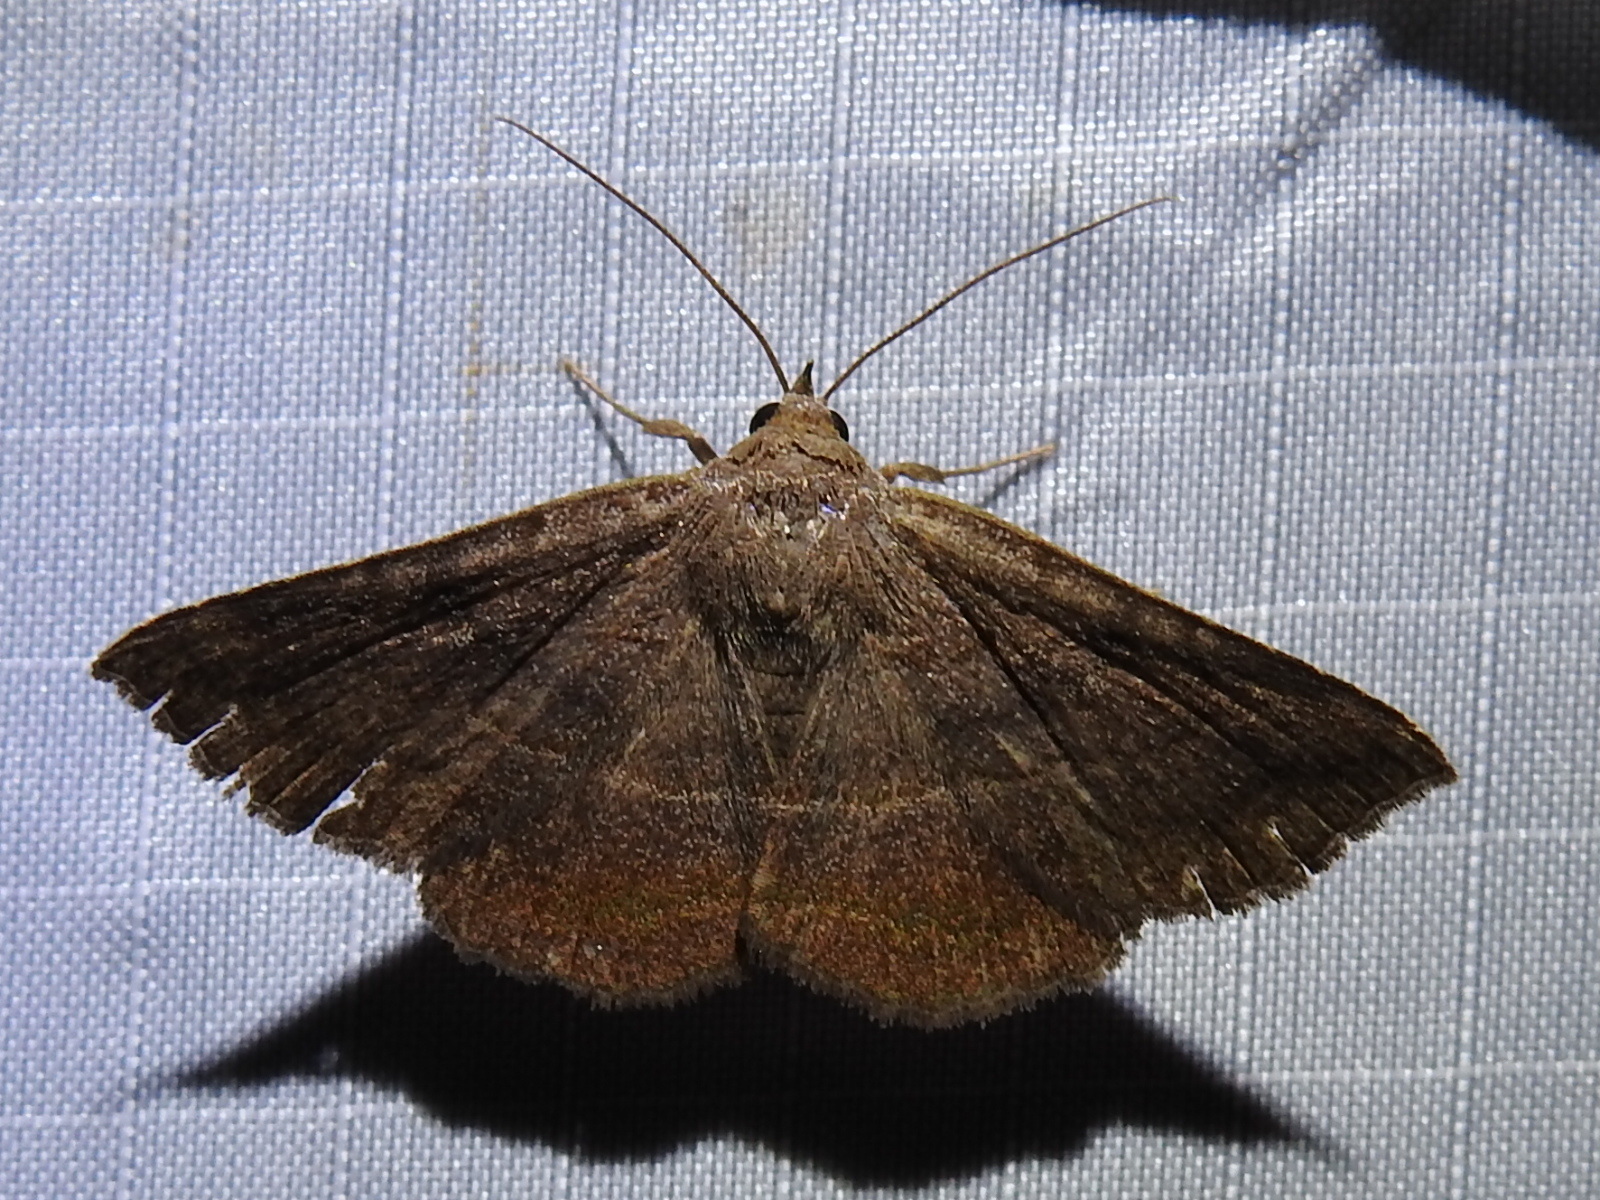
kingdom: Animalia
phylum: Arthropoda
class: Insecta
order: Lepidoptera
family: Erebidae
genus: Lesmone
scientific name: Lesmone detrahens
